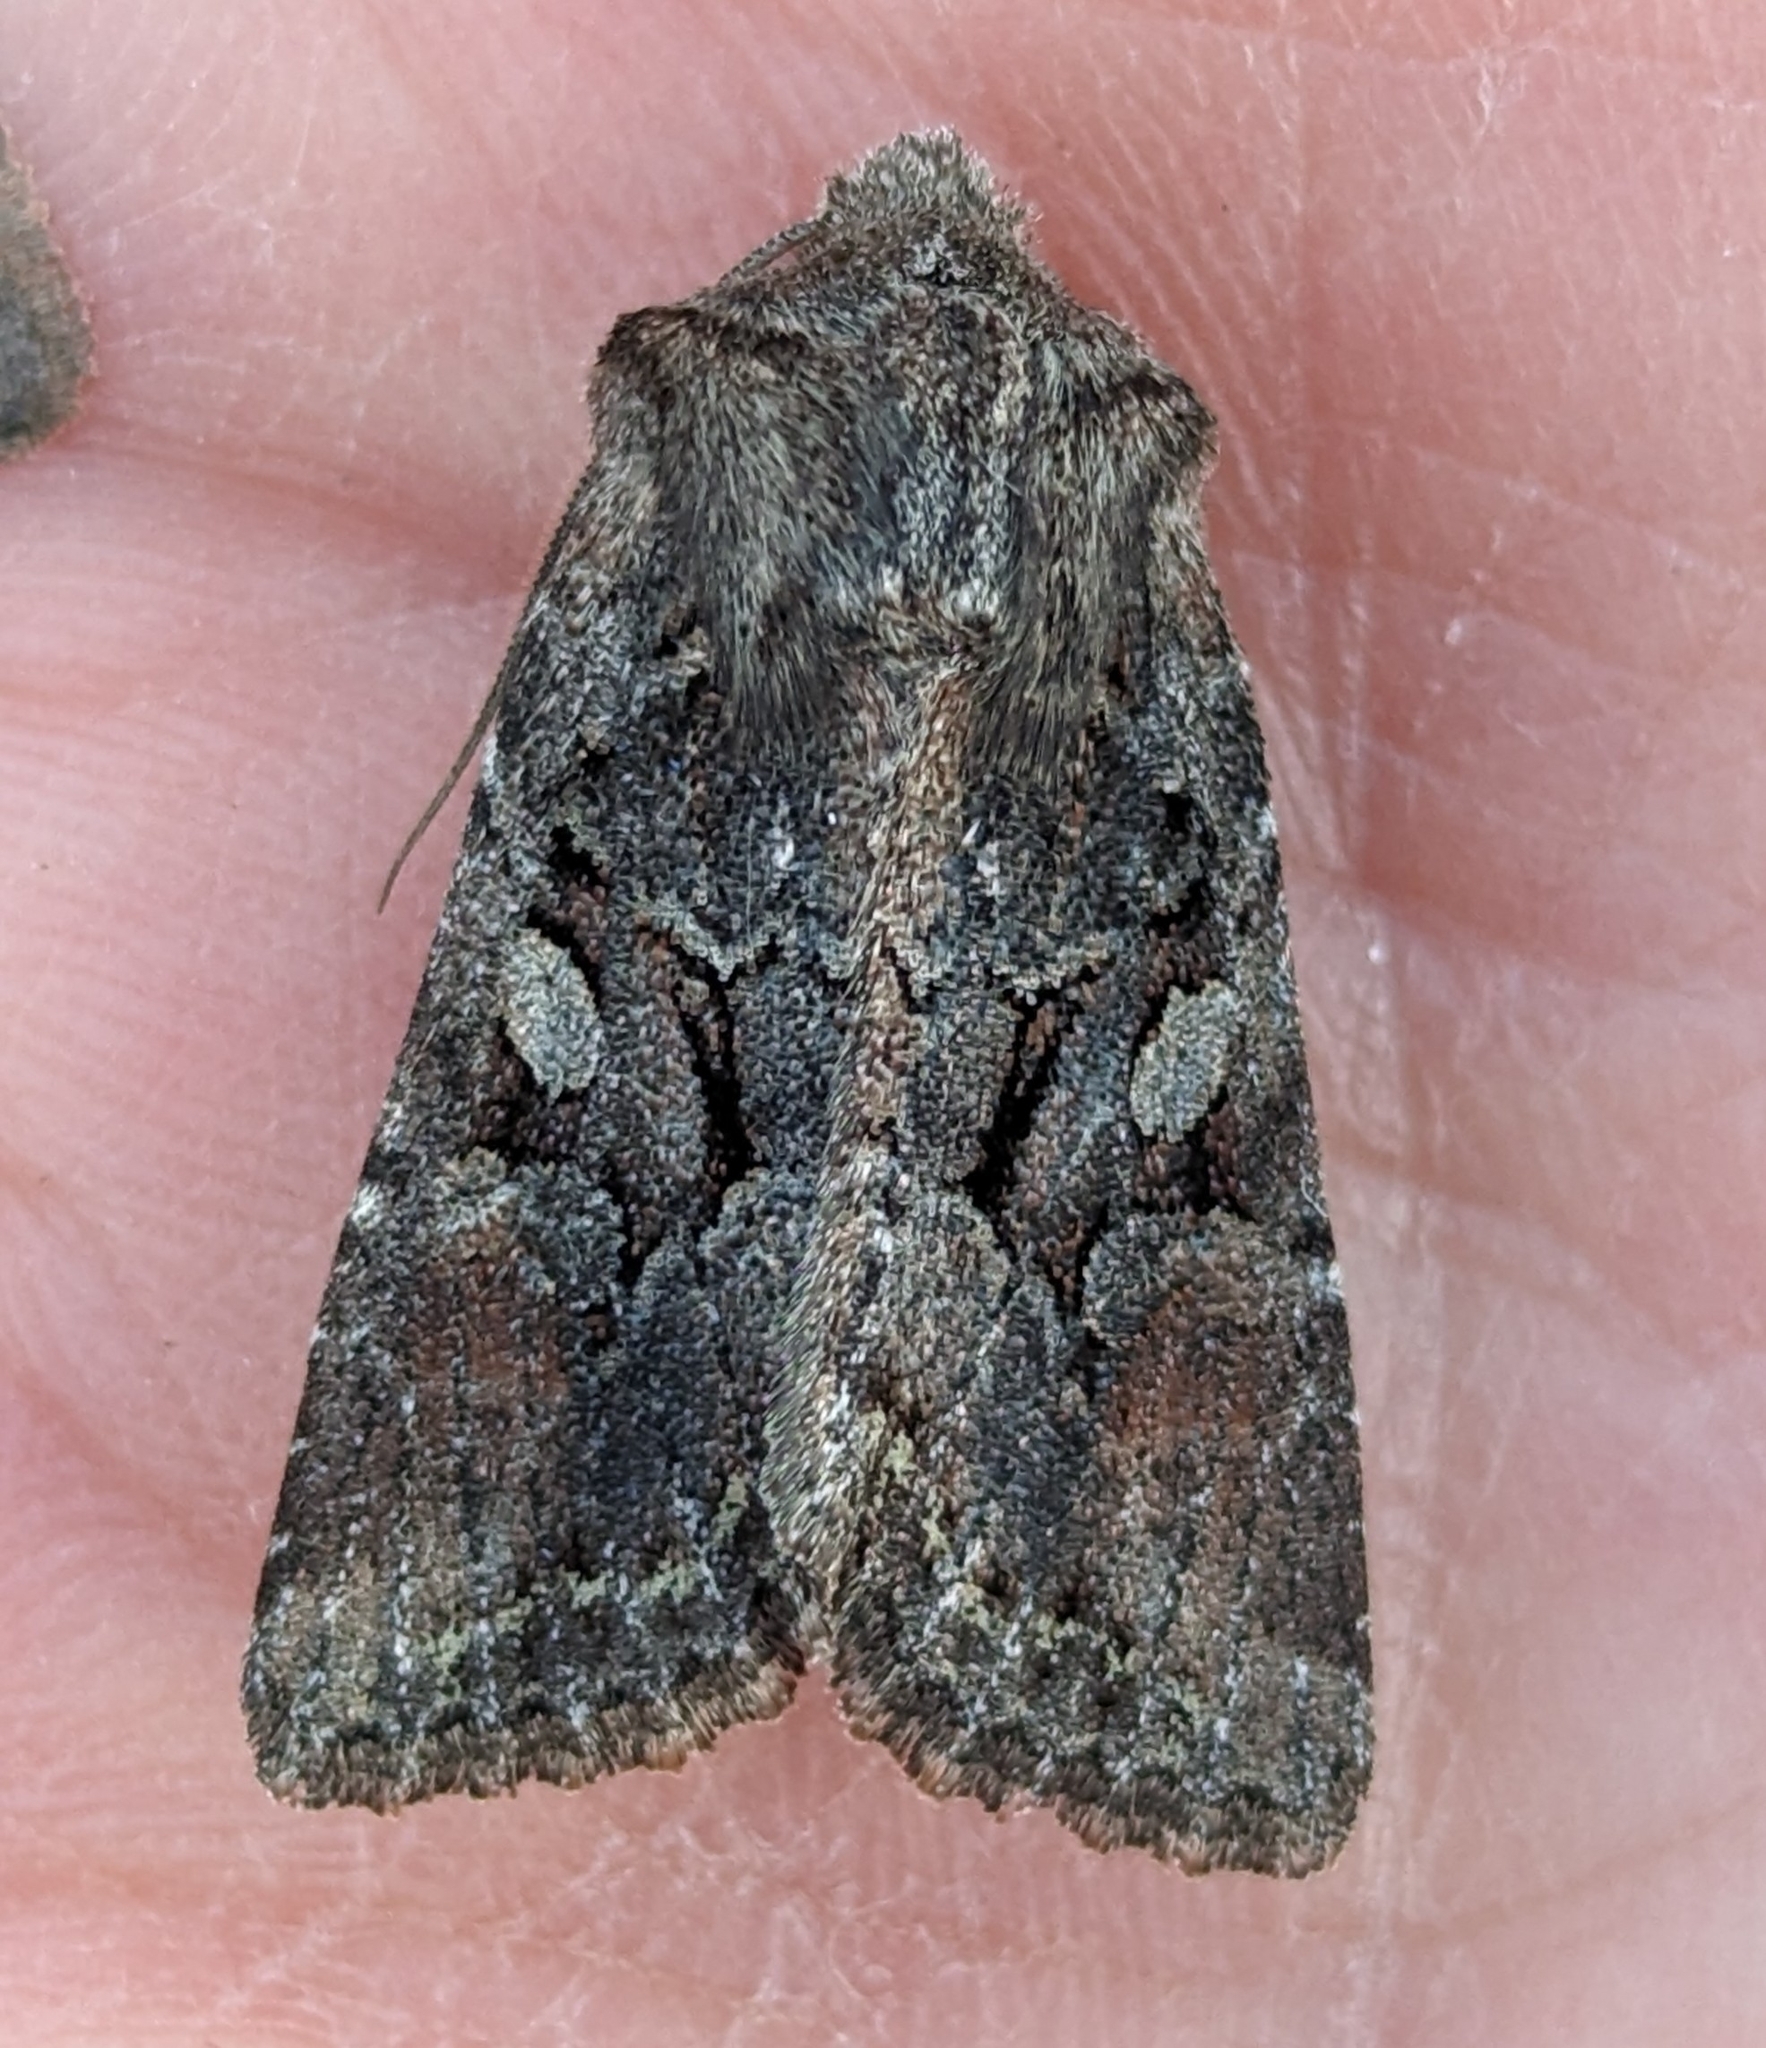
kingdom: Animalia
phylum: Arthropoda
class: Insecta
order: Lepidoptera
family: Noctuidae
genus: Orthosia
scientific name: Orthosia segregata
